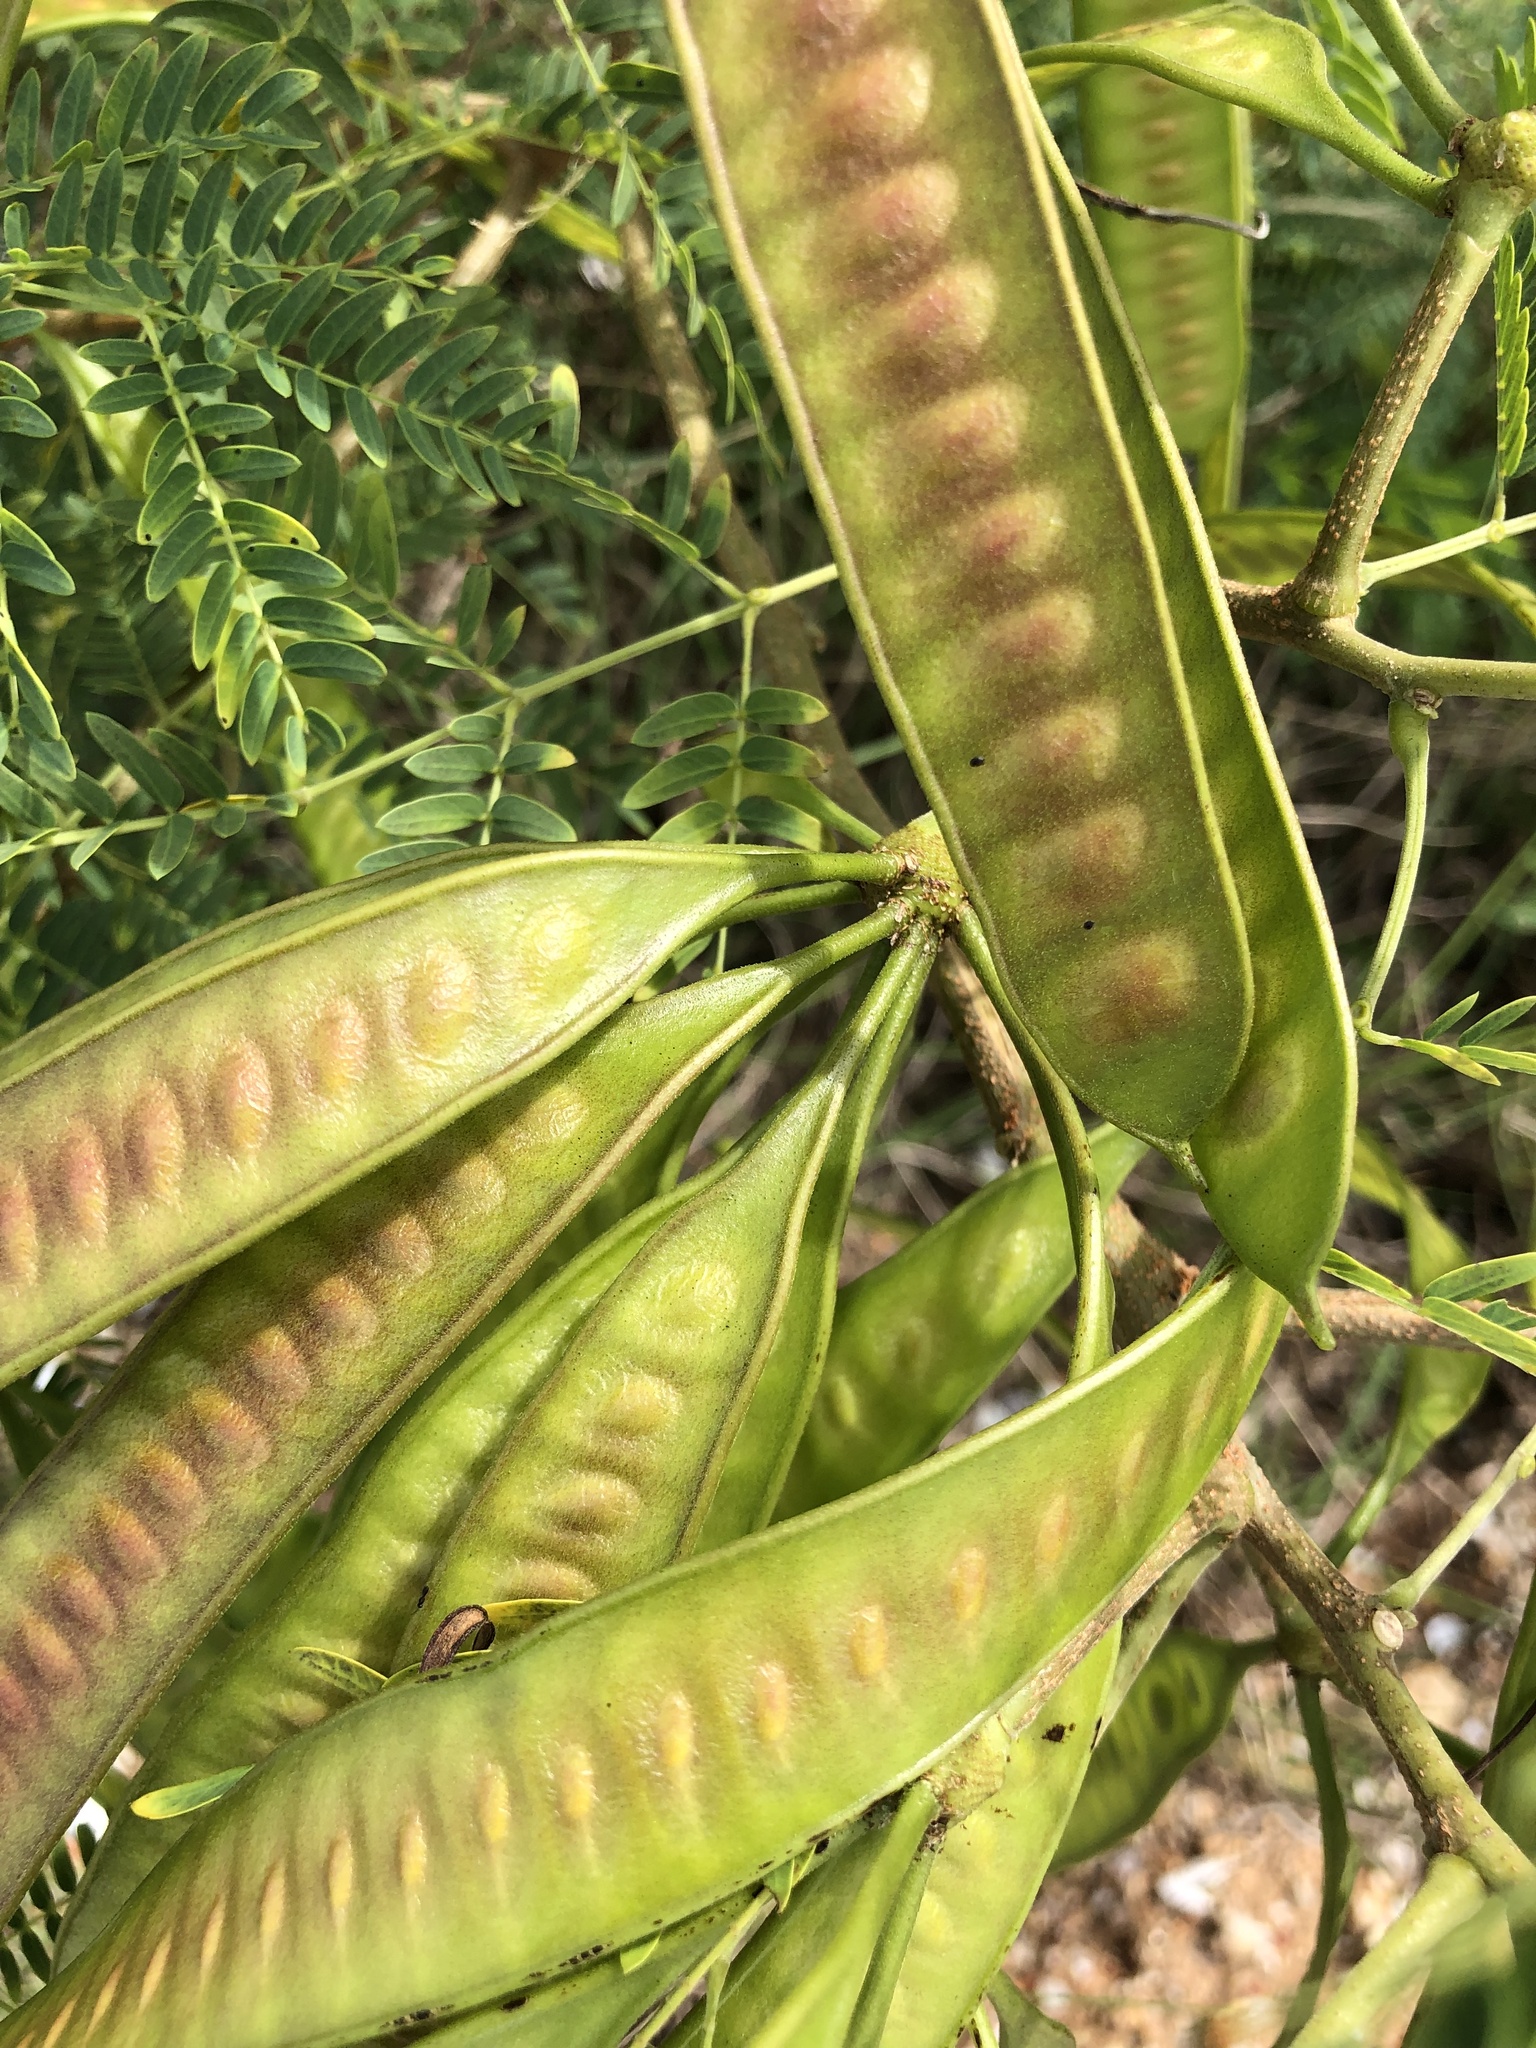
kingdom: Plantae
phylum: Tracheophyta
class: Magnoliopsida
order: Fabales
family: Fabaceae
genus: Leucaena
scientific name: Leucaena leucocephala
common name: White leadtree
